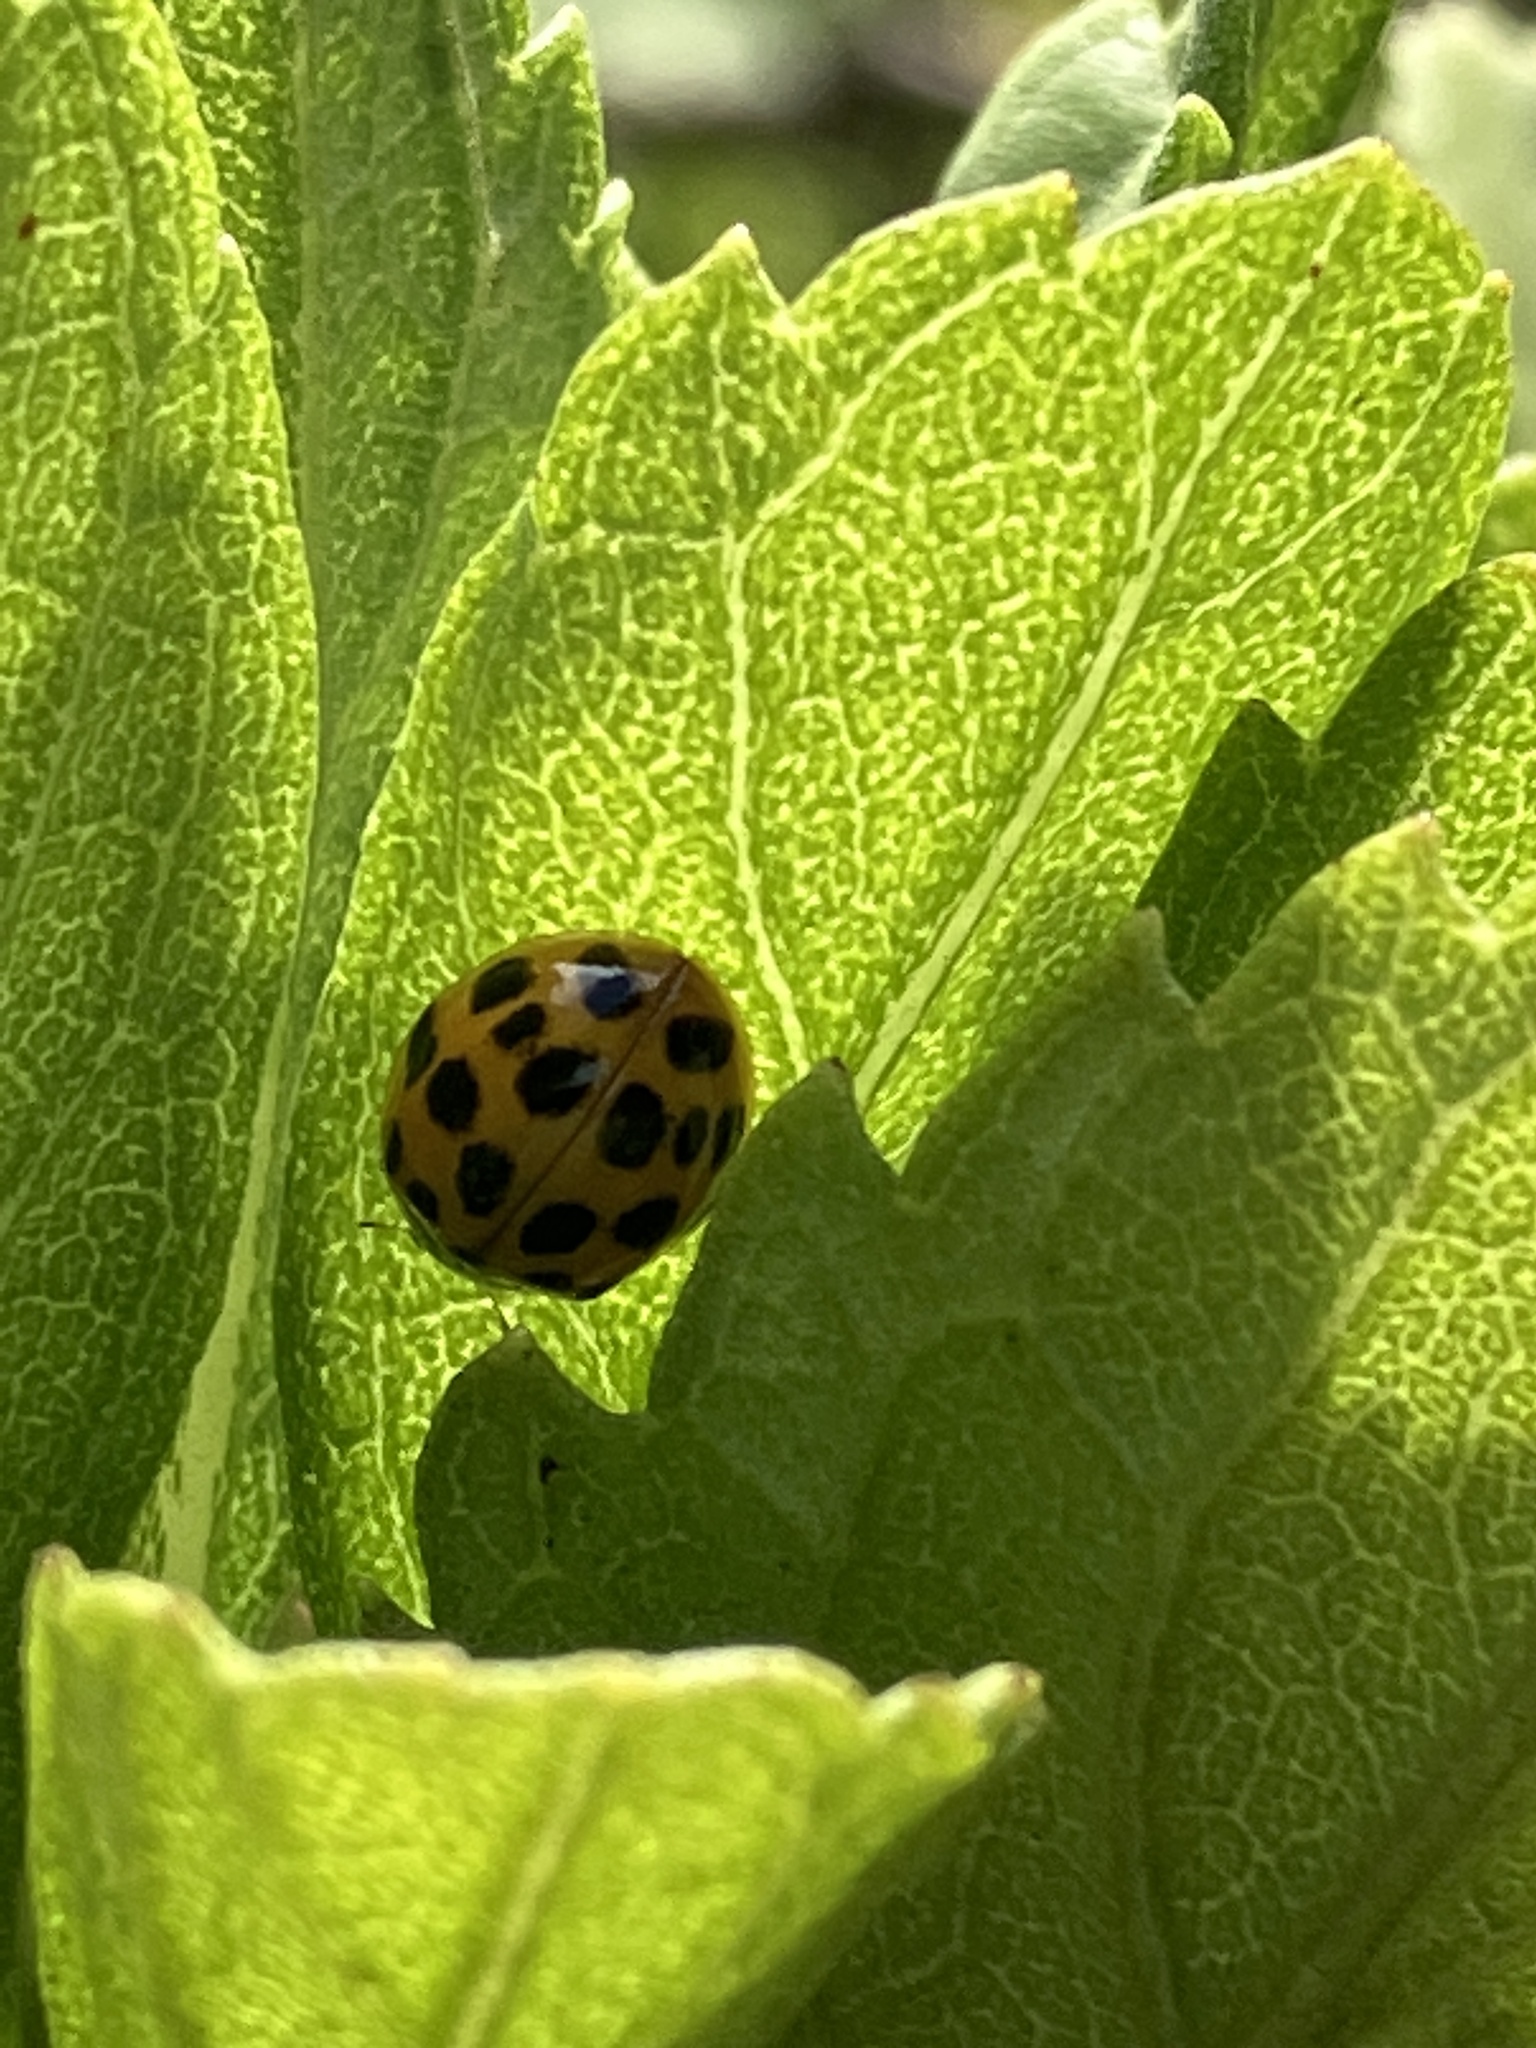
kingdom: Animalia
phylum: Arthropoda
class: Insecta
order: Coleoptera
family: Coccinellidae
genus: Harmonia
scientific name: Harmonia axyridis
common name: Harlequin ladybird
